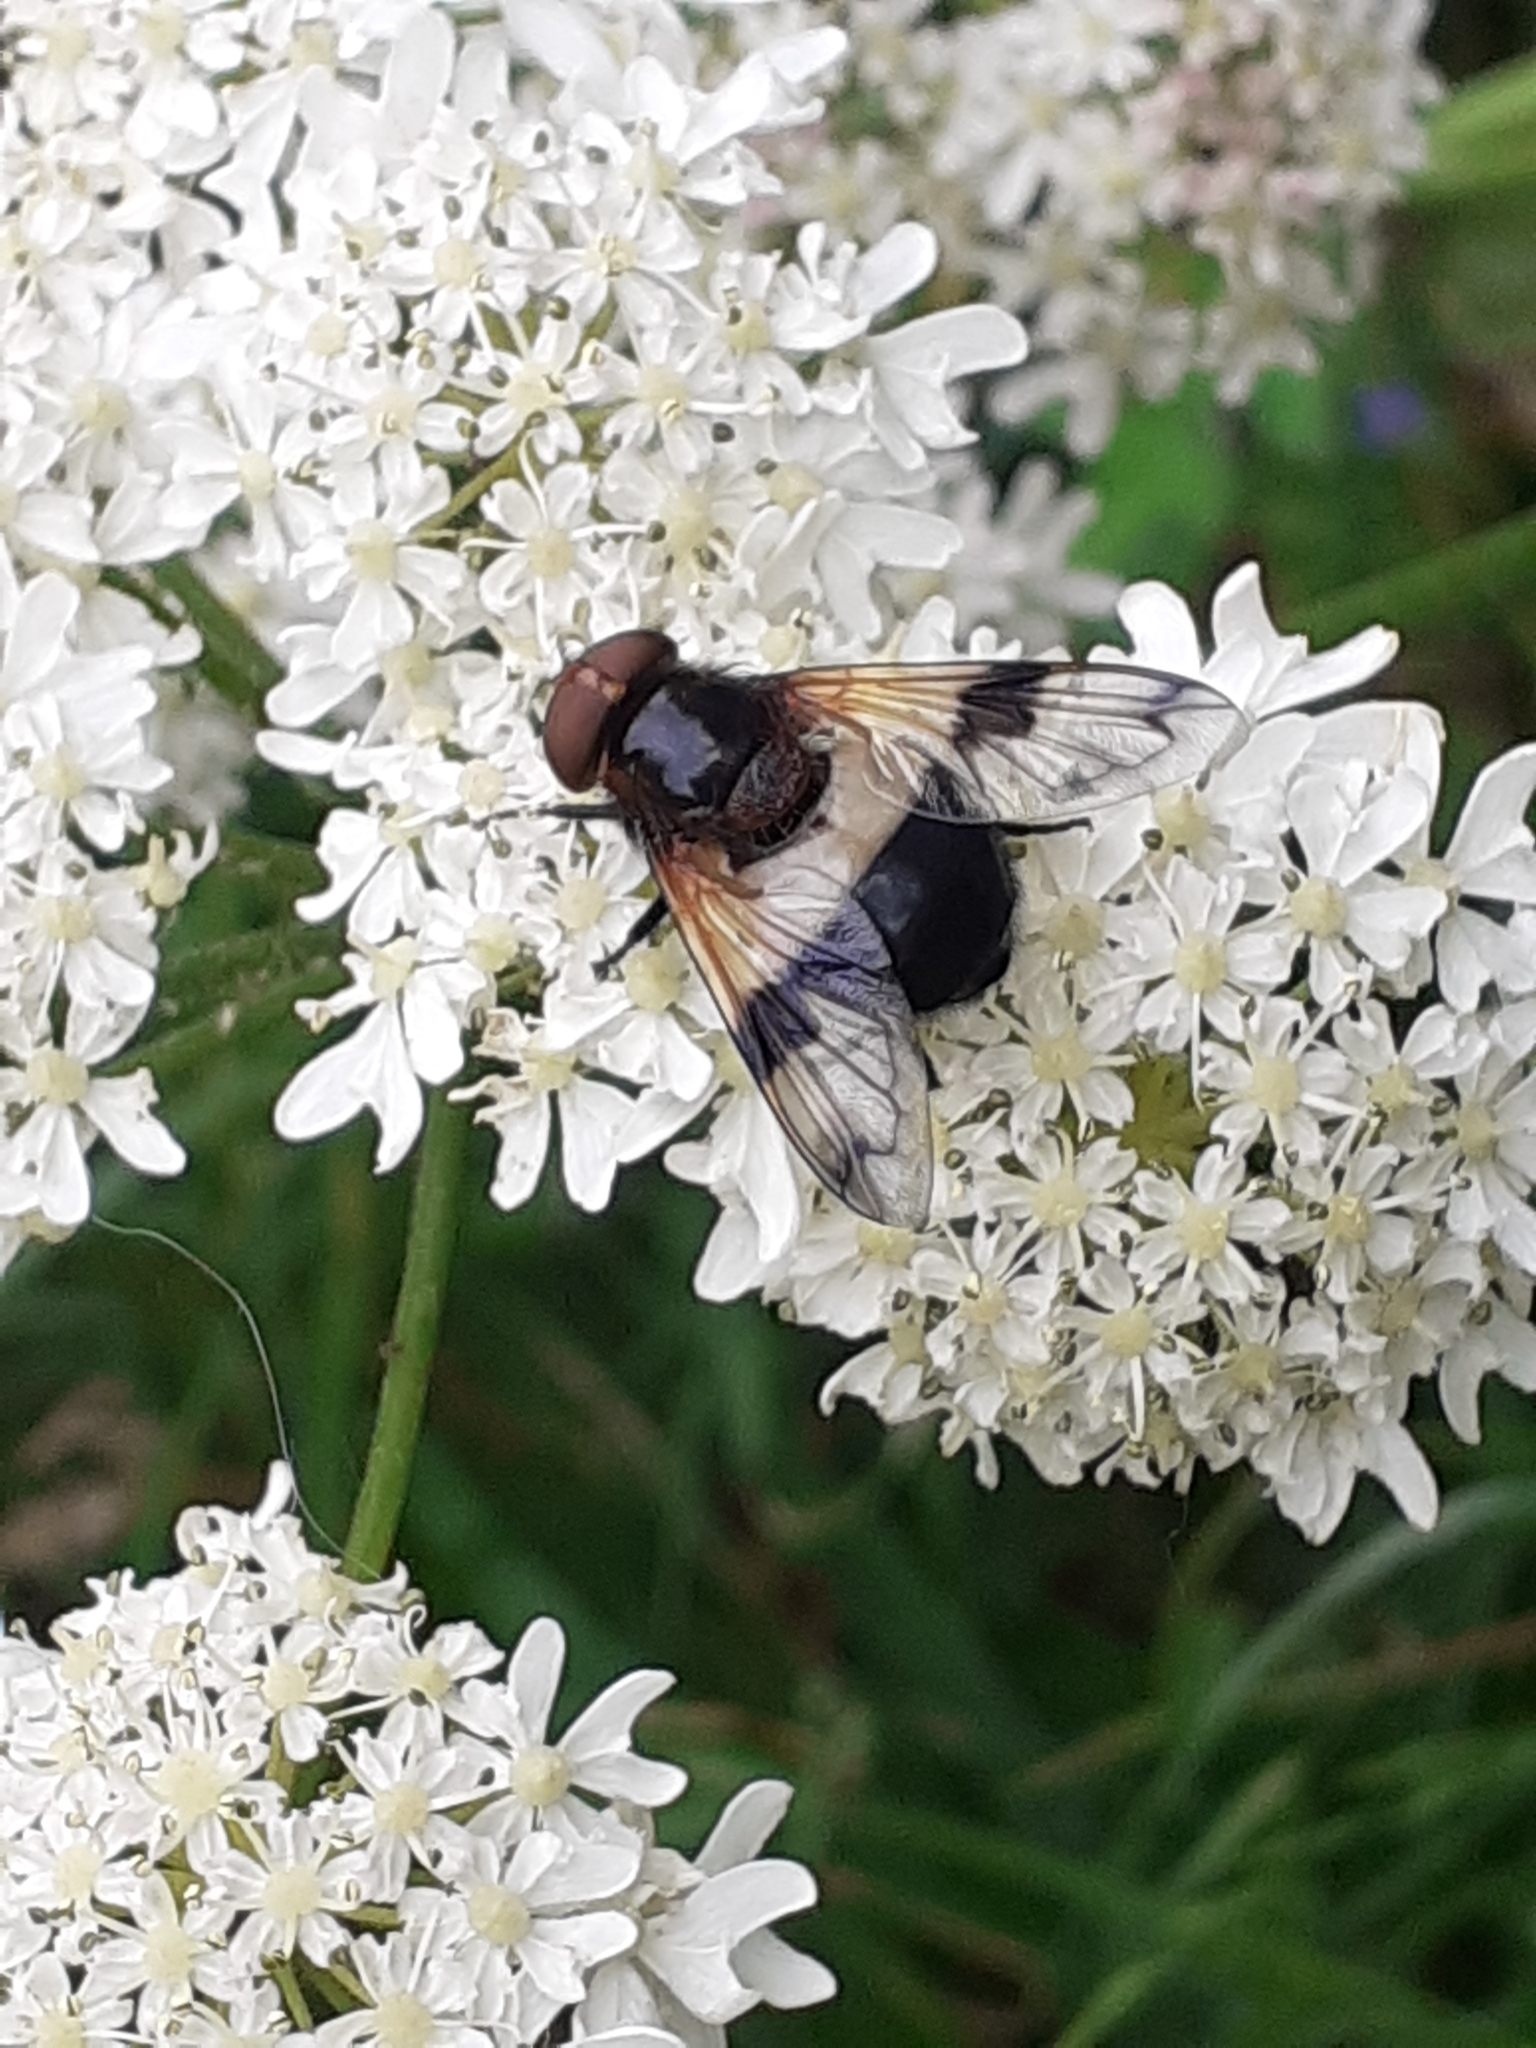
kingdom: Animalia
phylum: Arthropoda
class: Insecta
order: Diptera
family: Syrphidae
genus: Volucella
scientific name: Volucella pellucens
